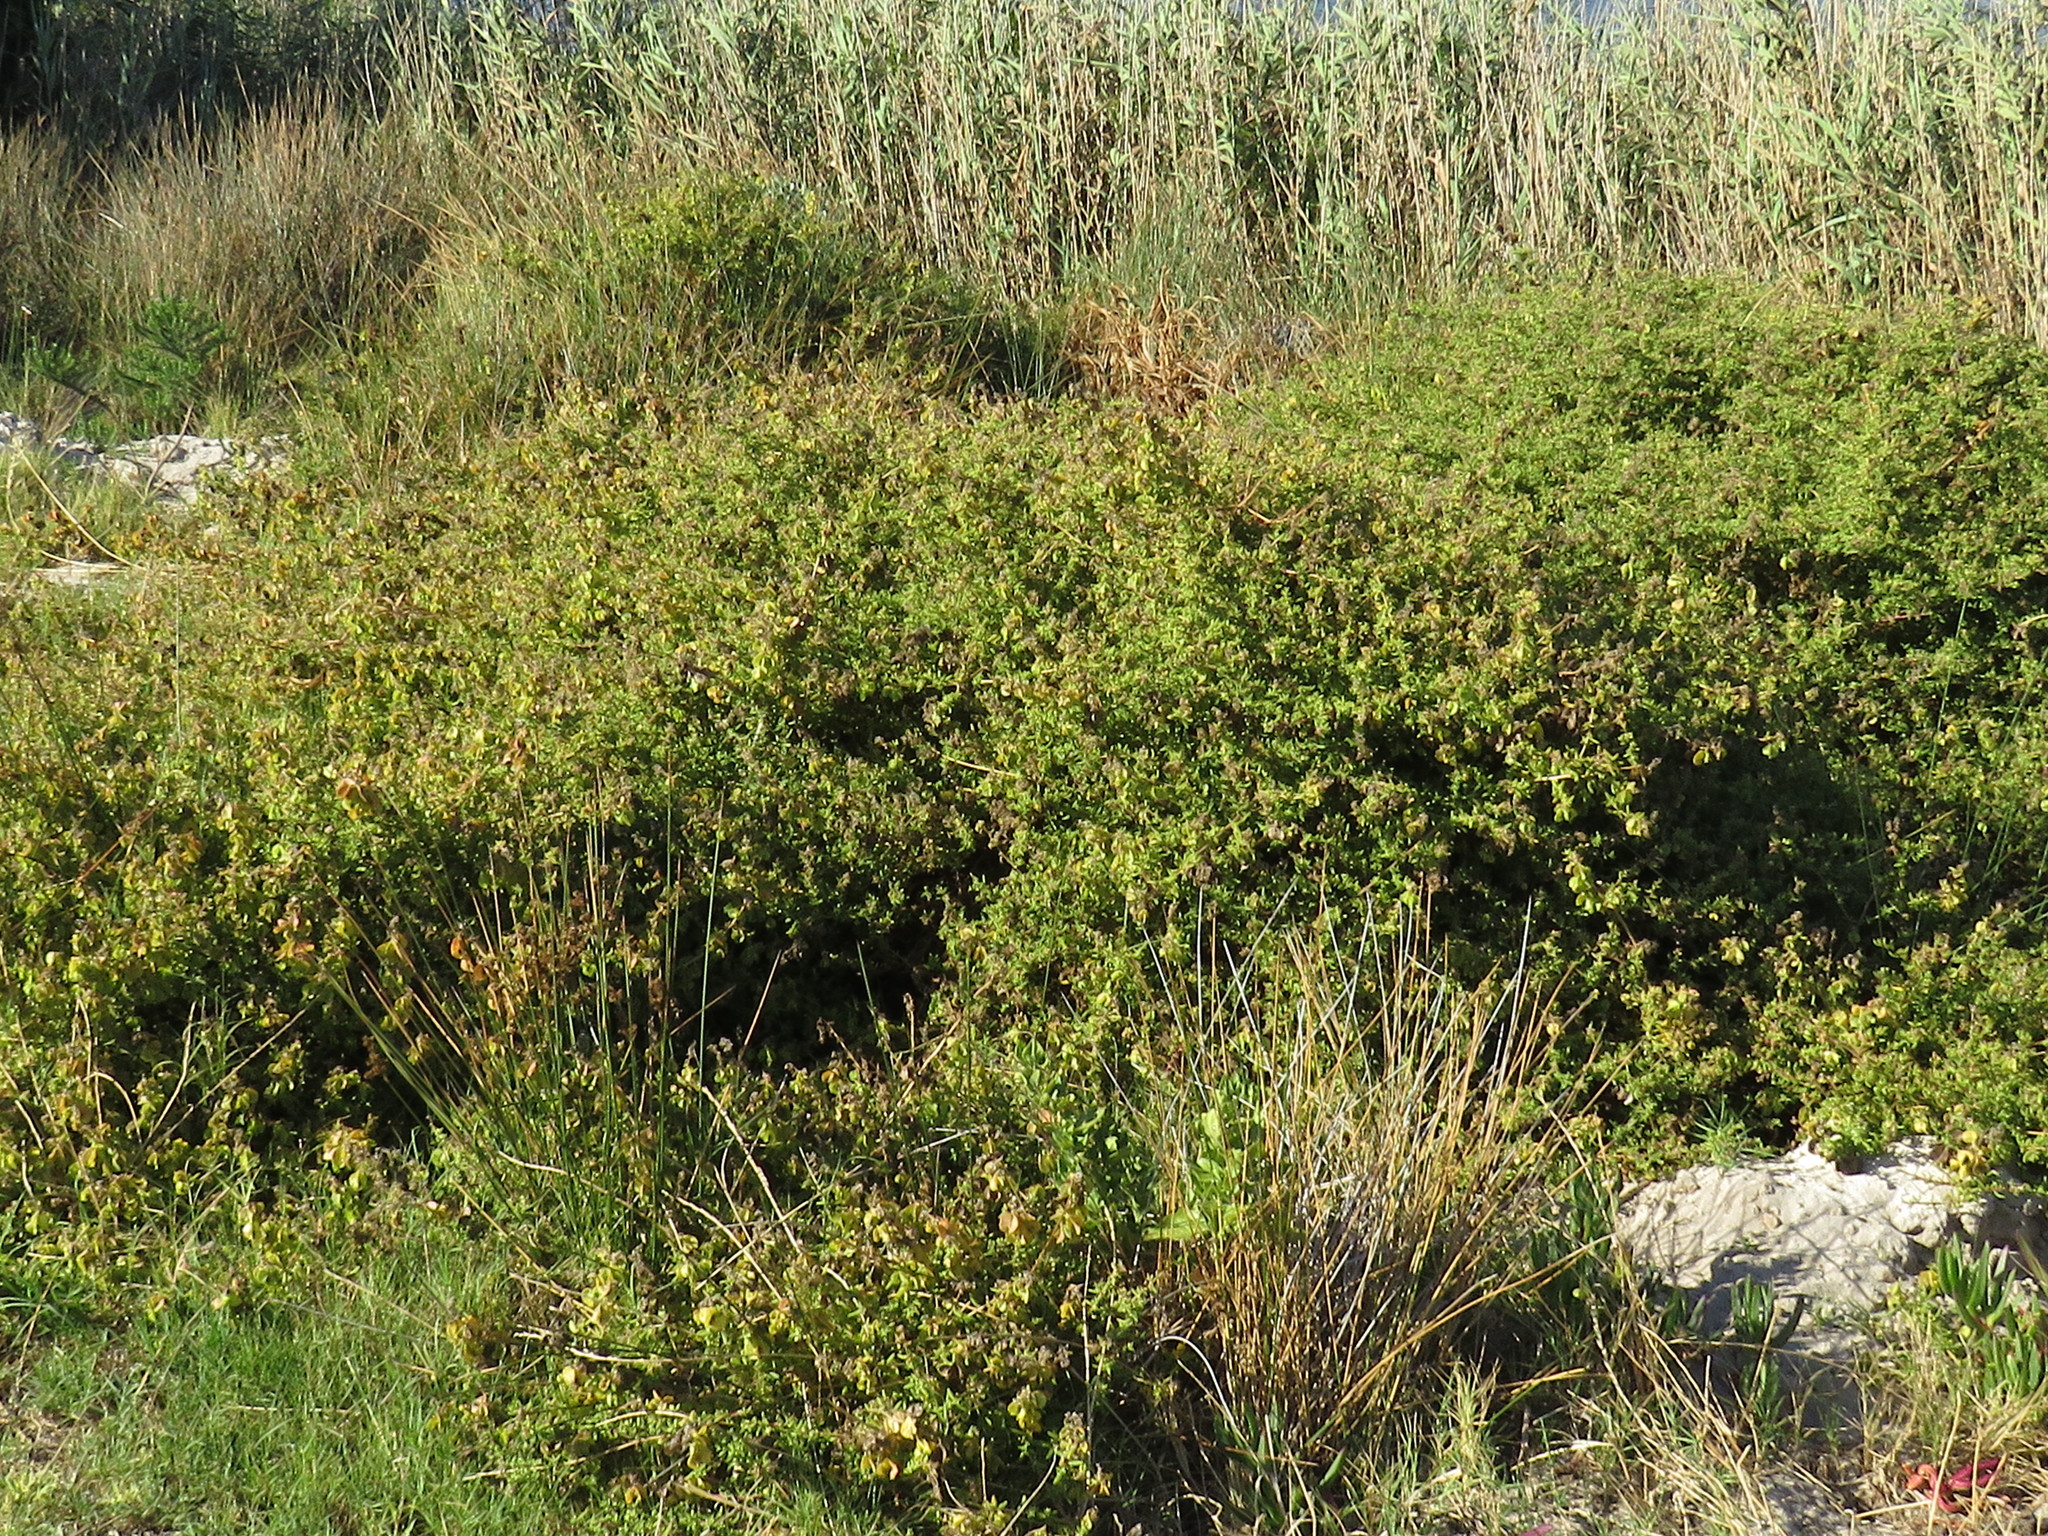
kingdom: Plantae
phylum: Tracheophyta
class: Magnoliopsida
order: Caryophyllales
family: Aizoaceae
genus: Tetragonia
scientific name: Tetragonia fruticosa
